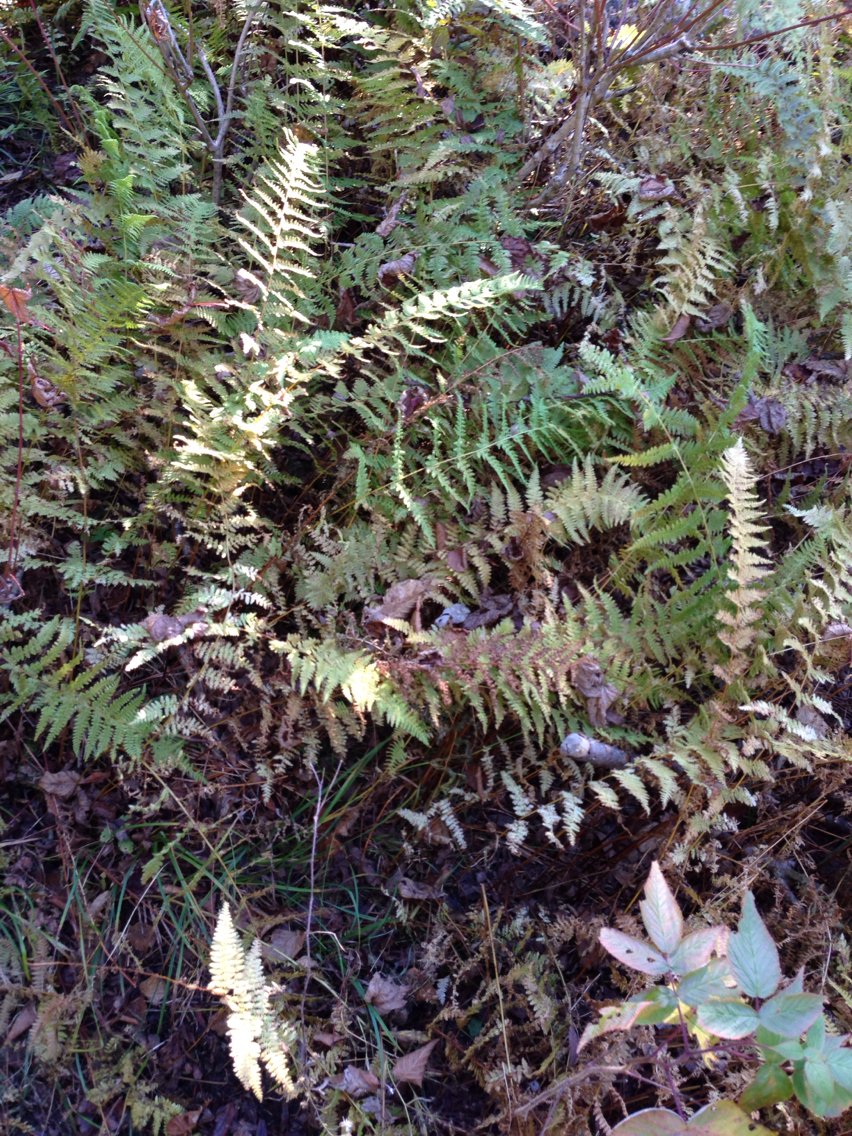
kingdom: Plantae
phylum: Tracheophyta
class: Polypodiopsida
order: Polypodiales
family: Dennstaedtiaceae
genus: Sitobolium
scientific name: Sitobolium punctilobum
